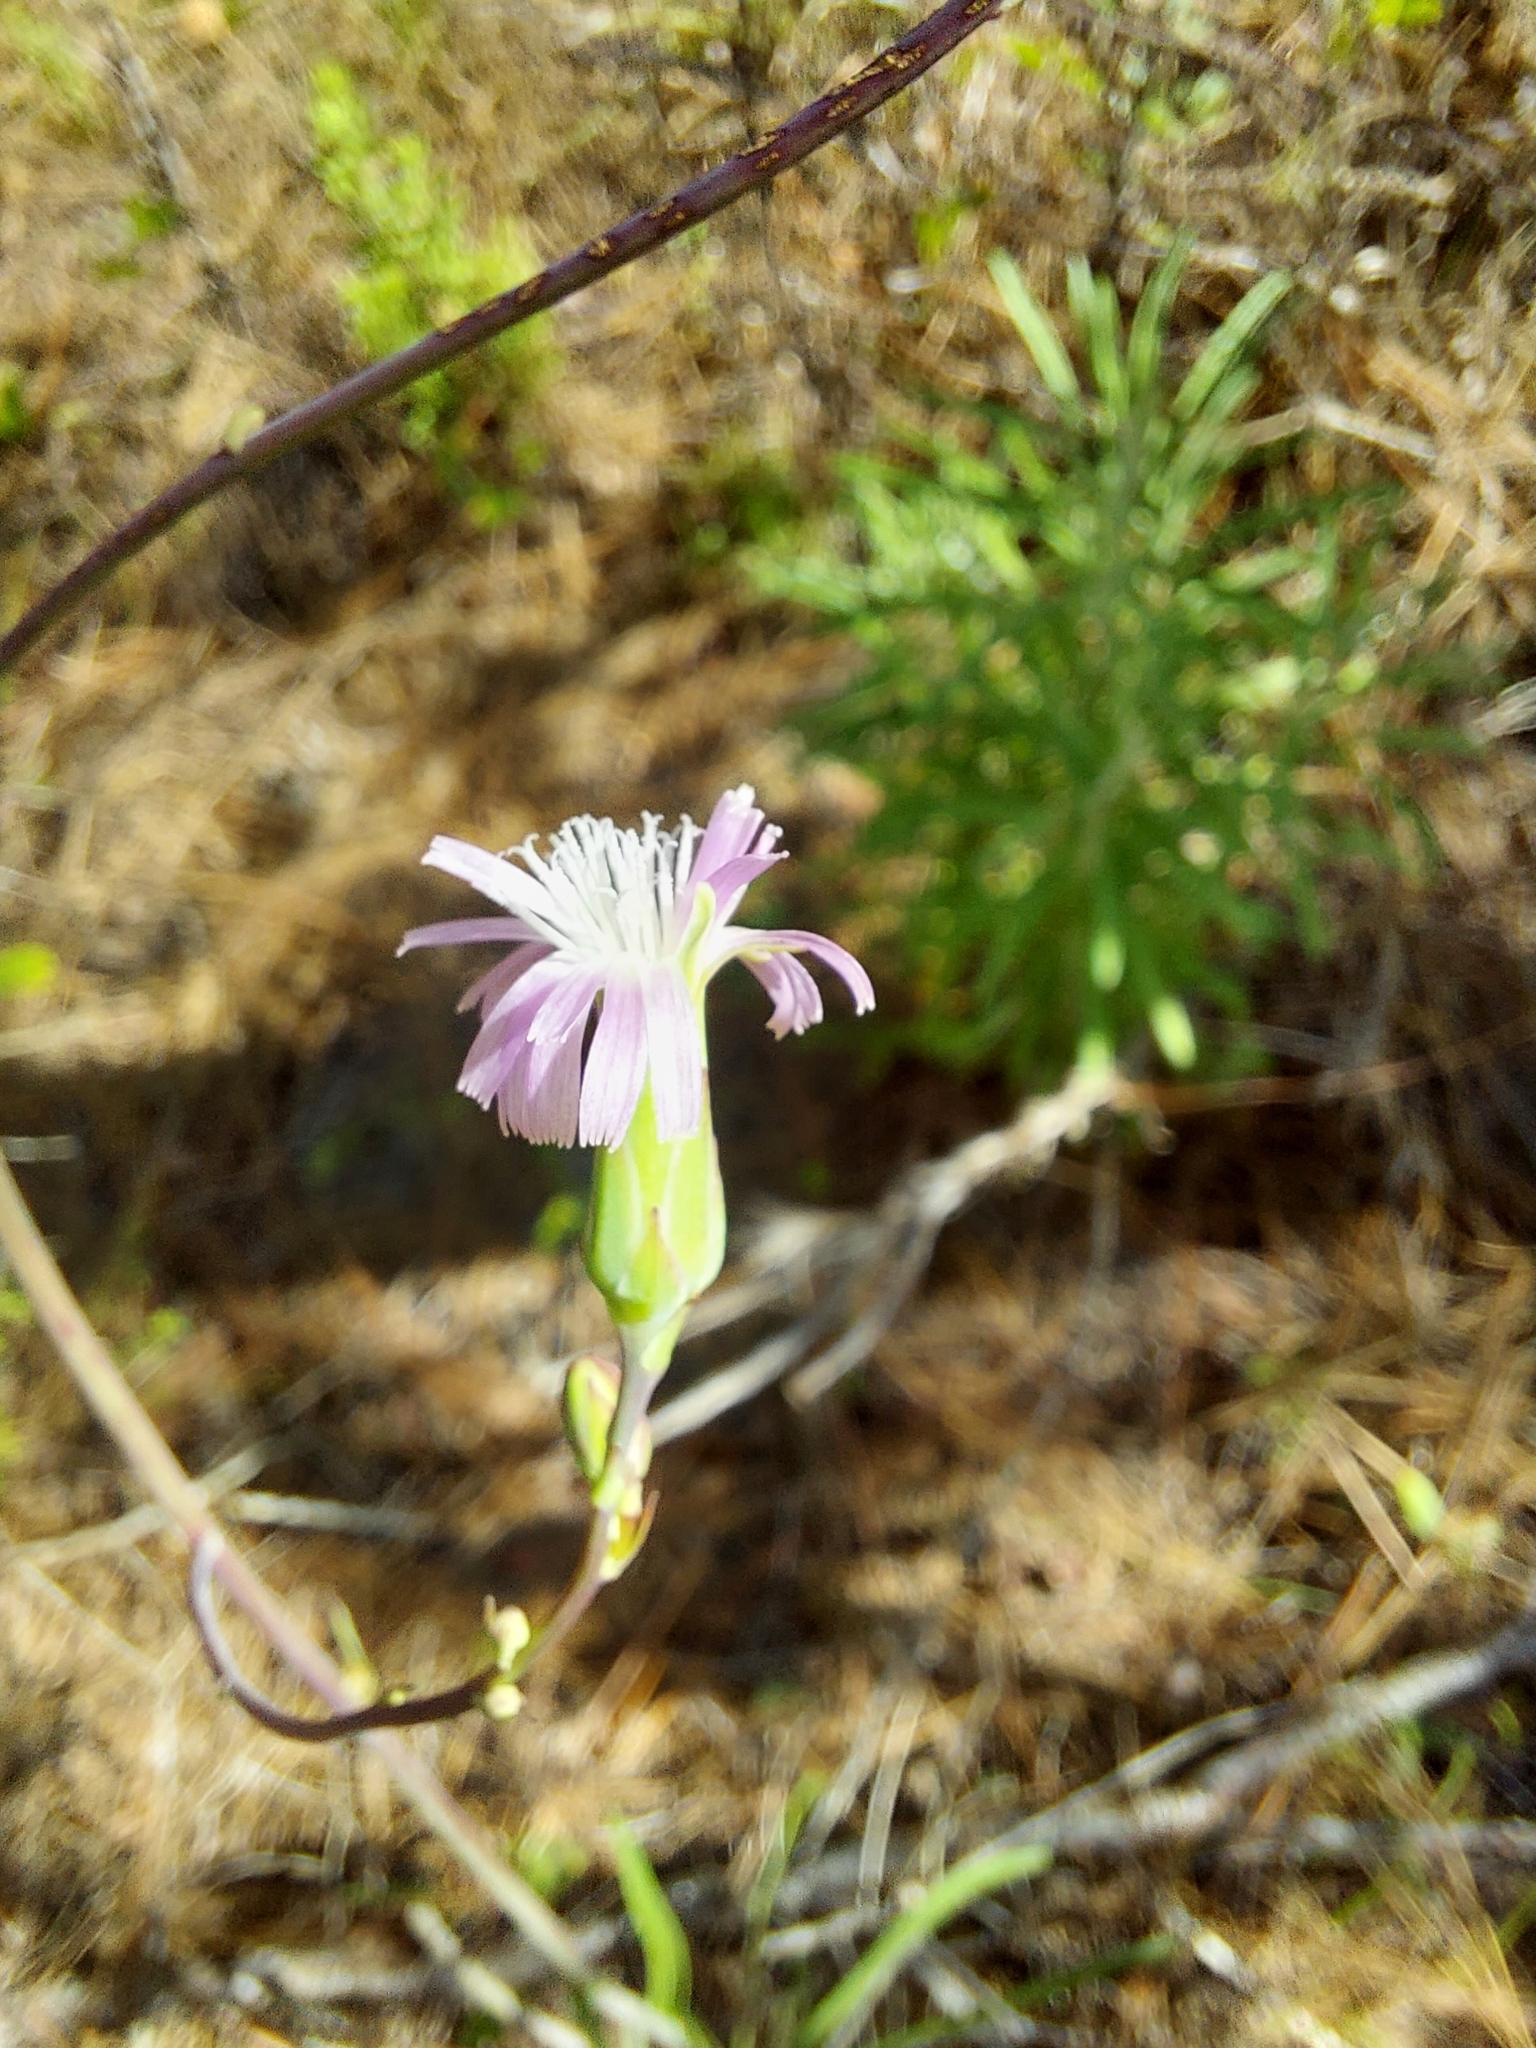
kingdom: Plantae
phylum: Tracheophyta
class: Magnoliopsida
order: Asterales
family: Asteraceae
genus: Lactuca
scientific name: Lactuca graminifolia
